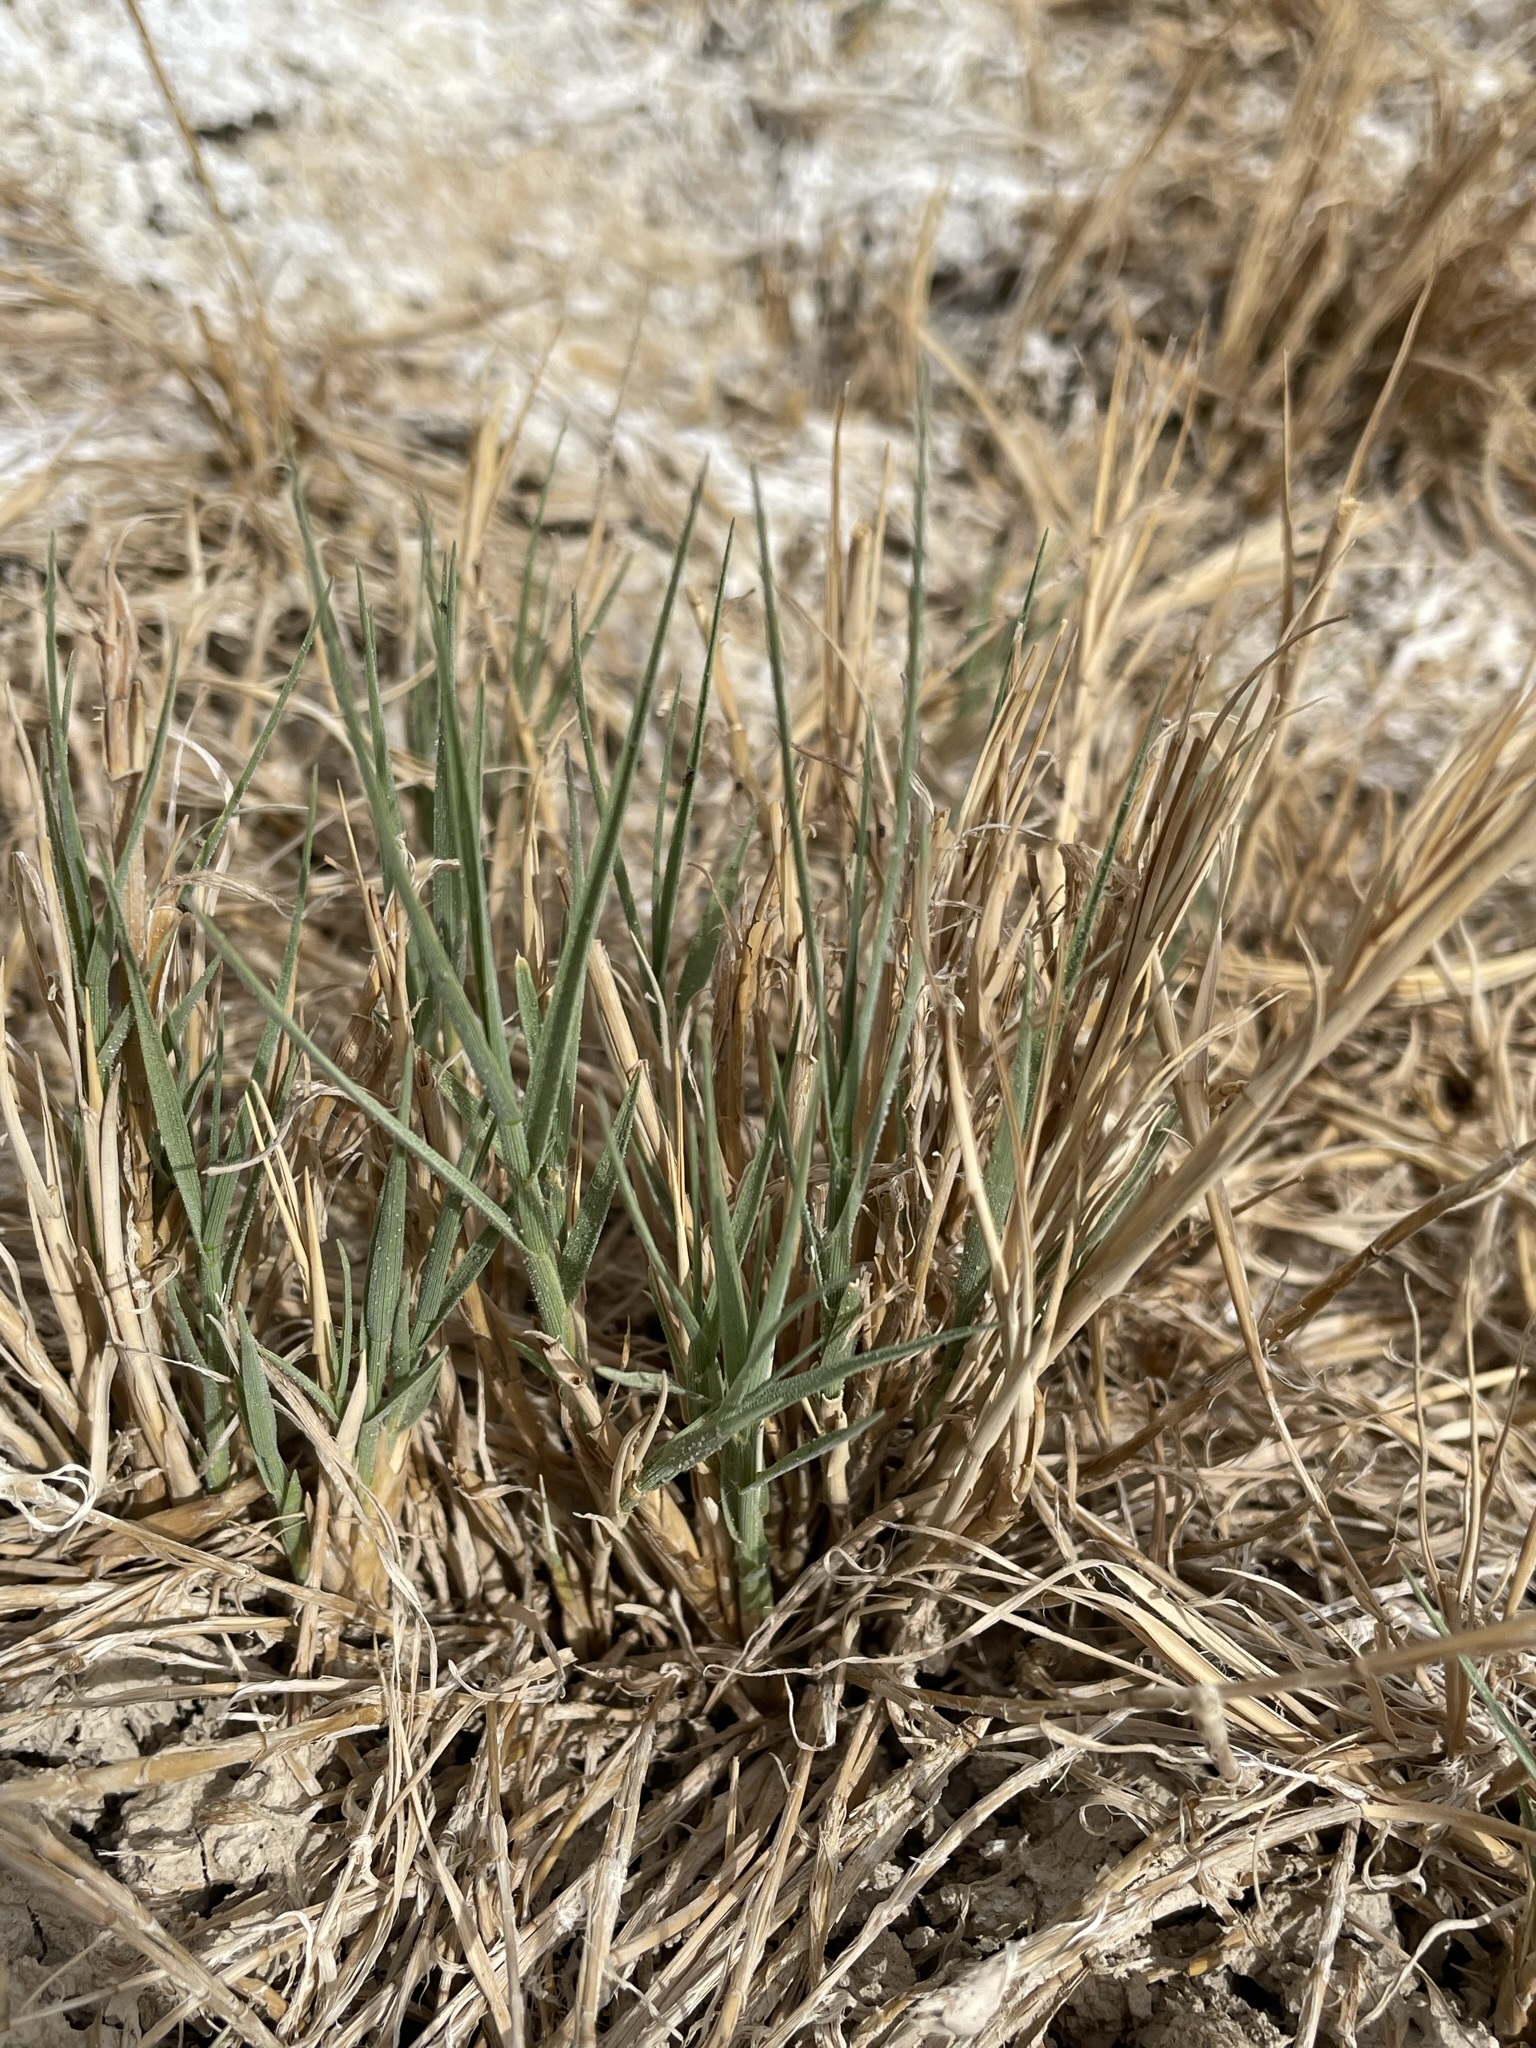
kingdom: Plantae
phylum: Tracheophyta
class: Liliopsida
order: Poales
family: Poaceae
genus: Distichlis
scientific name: Distichlis spicata
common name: Saltgrass
